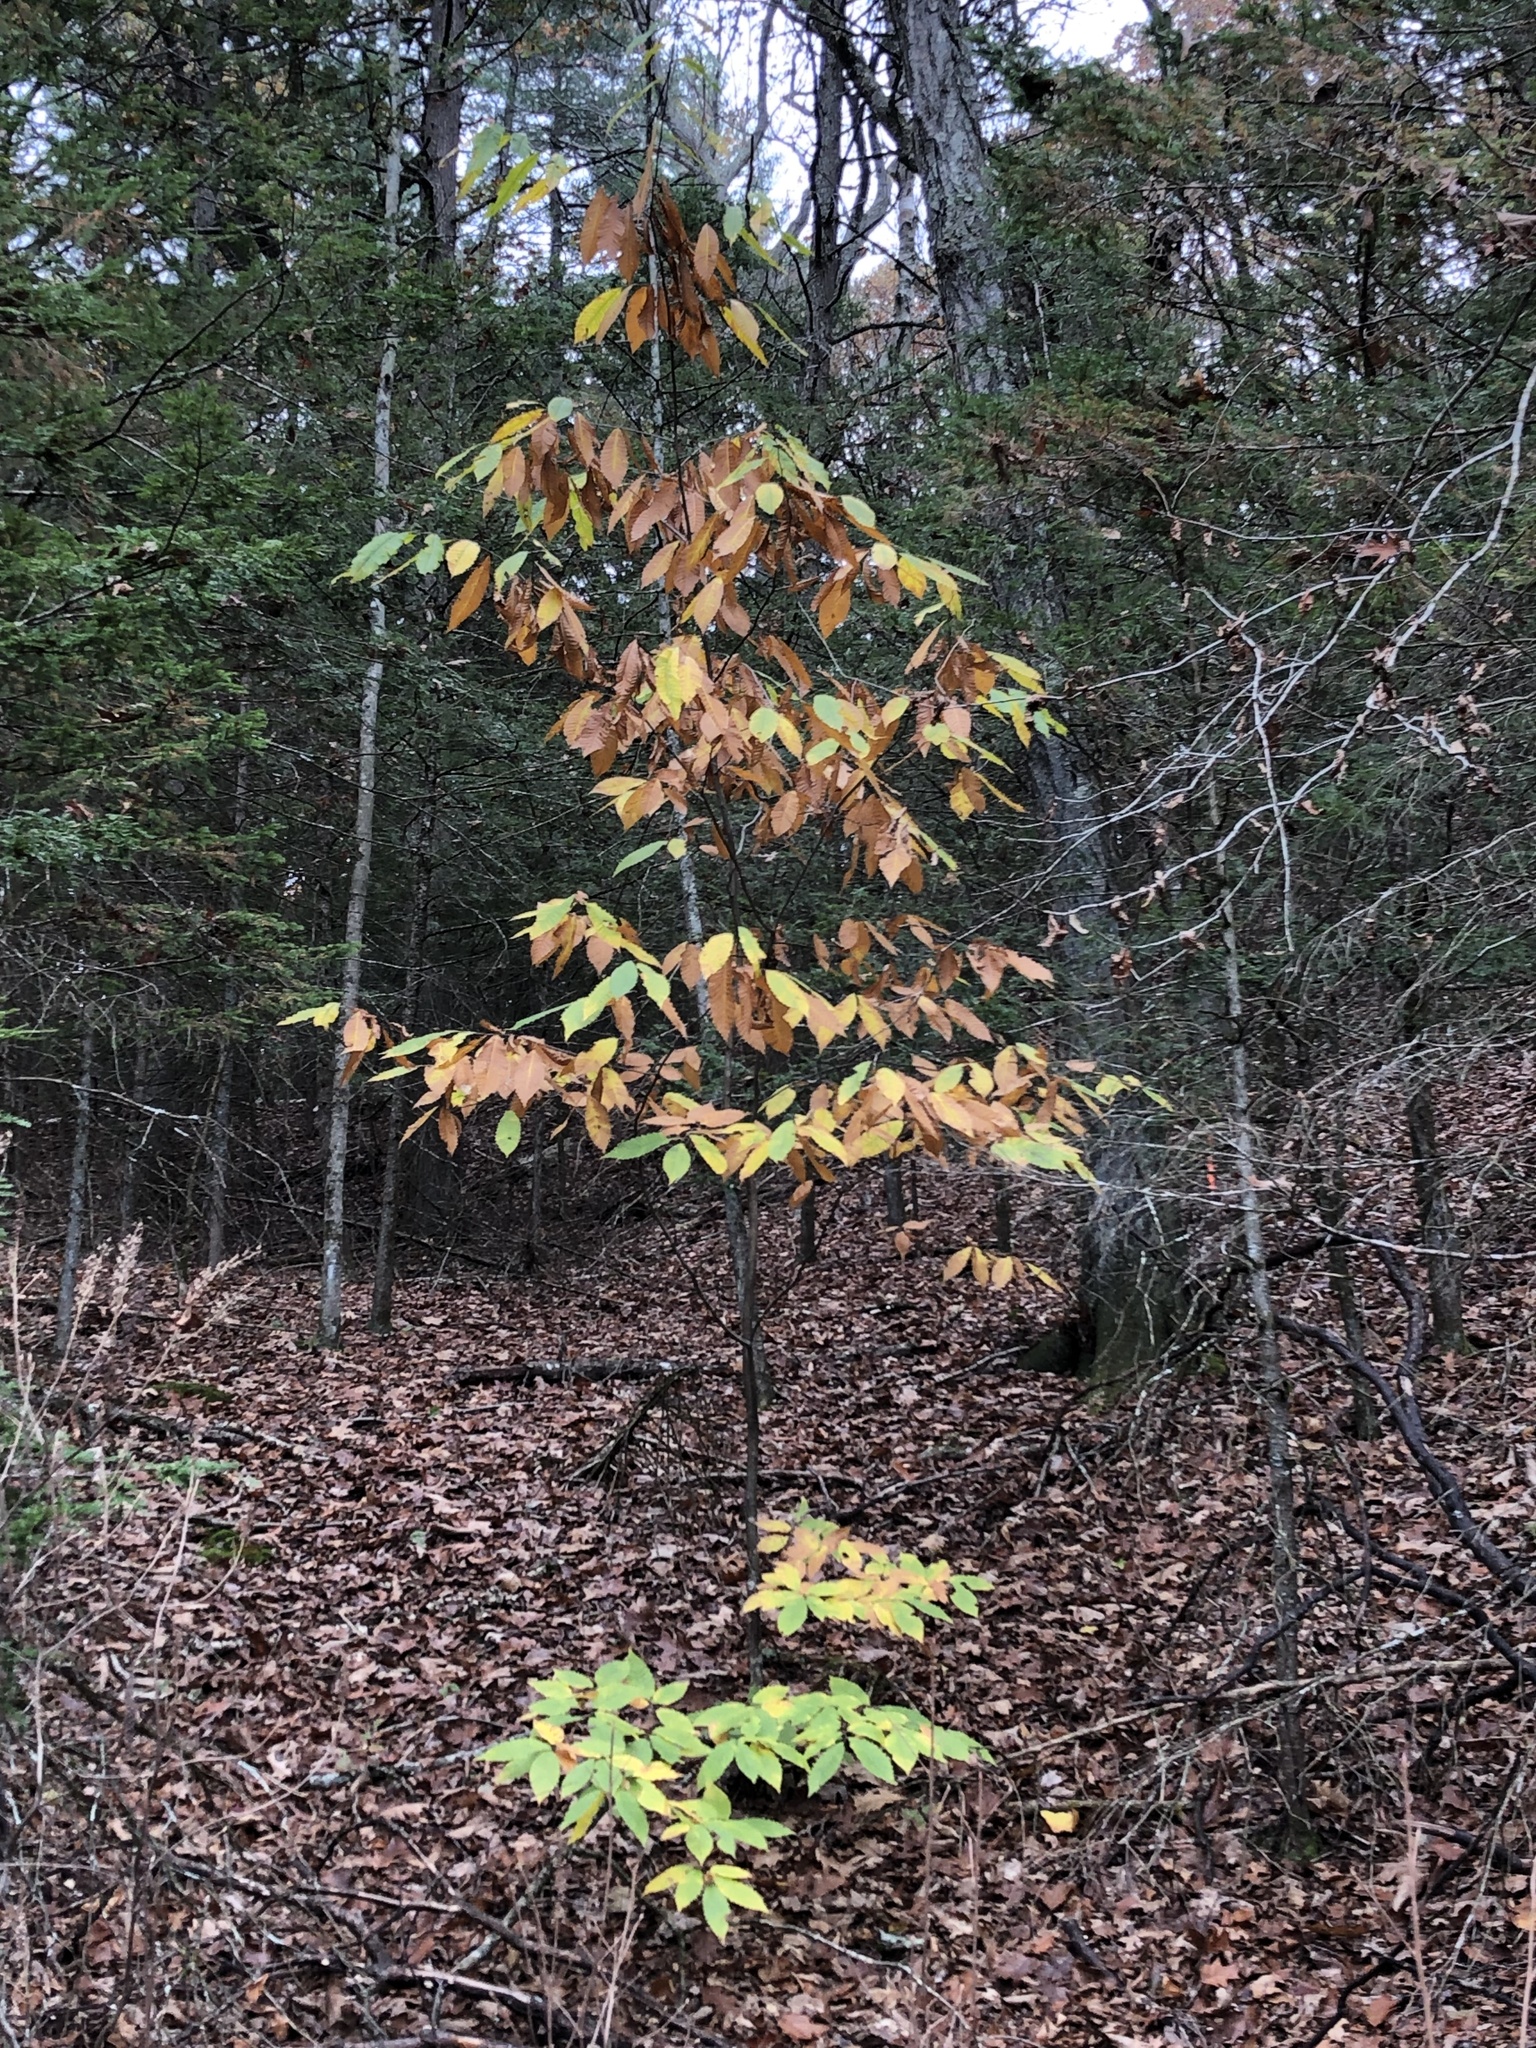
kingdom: Plantae
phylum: Tracheophyta
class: Magnoliopsida
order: Fagales
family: Fagaceae
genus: Castanea
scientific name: Castanea dentata
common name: American chestnut
